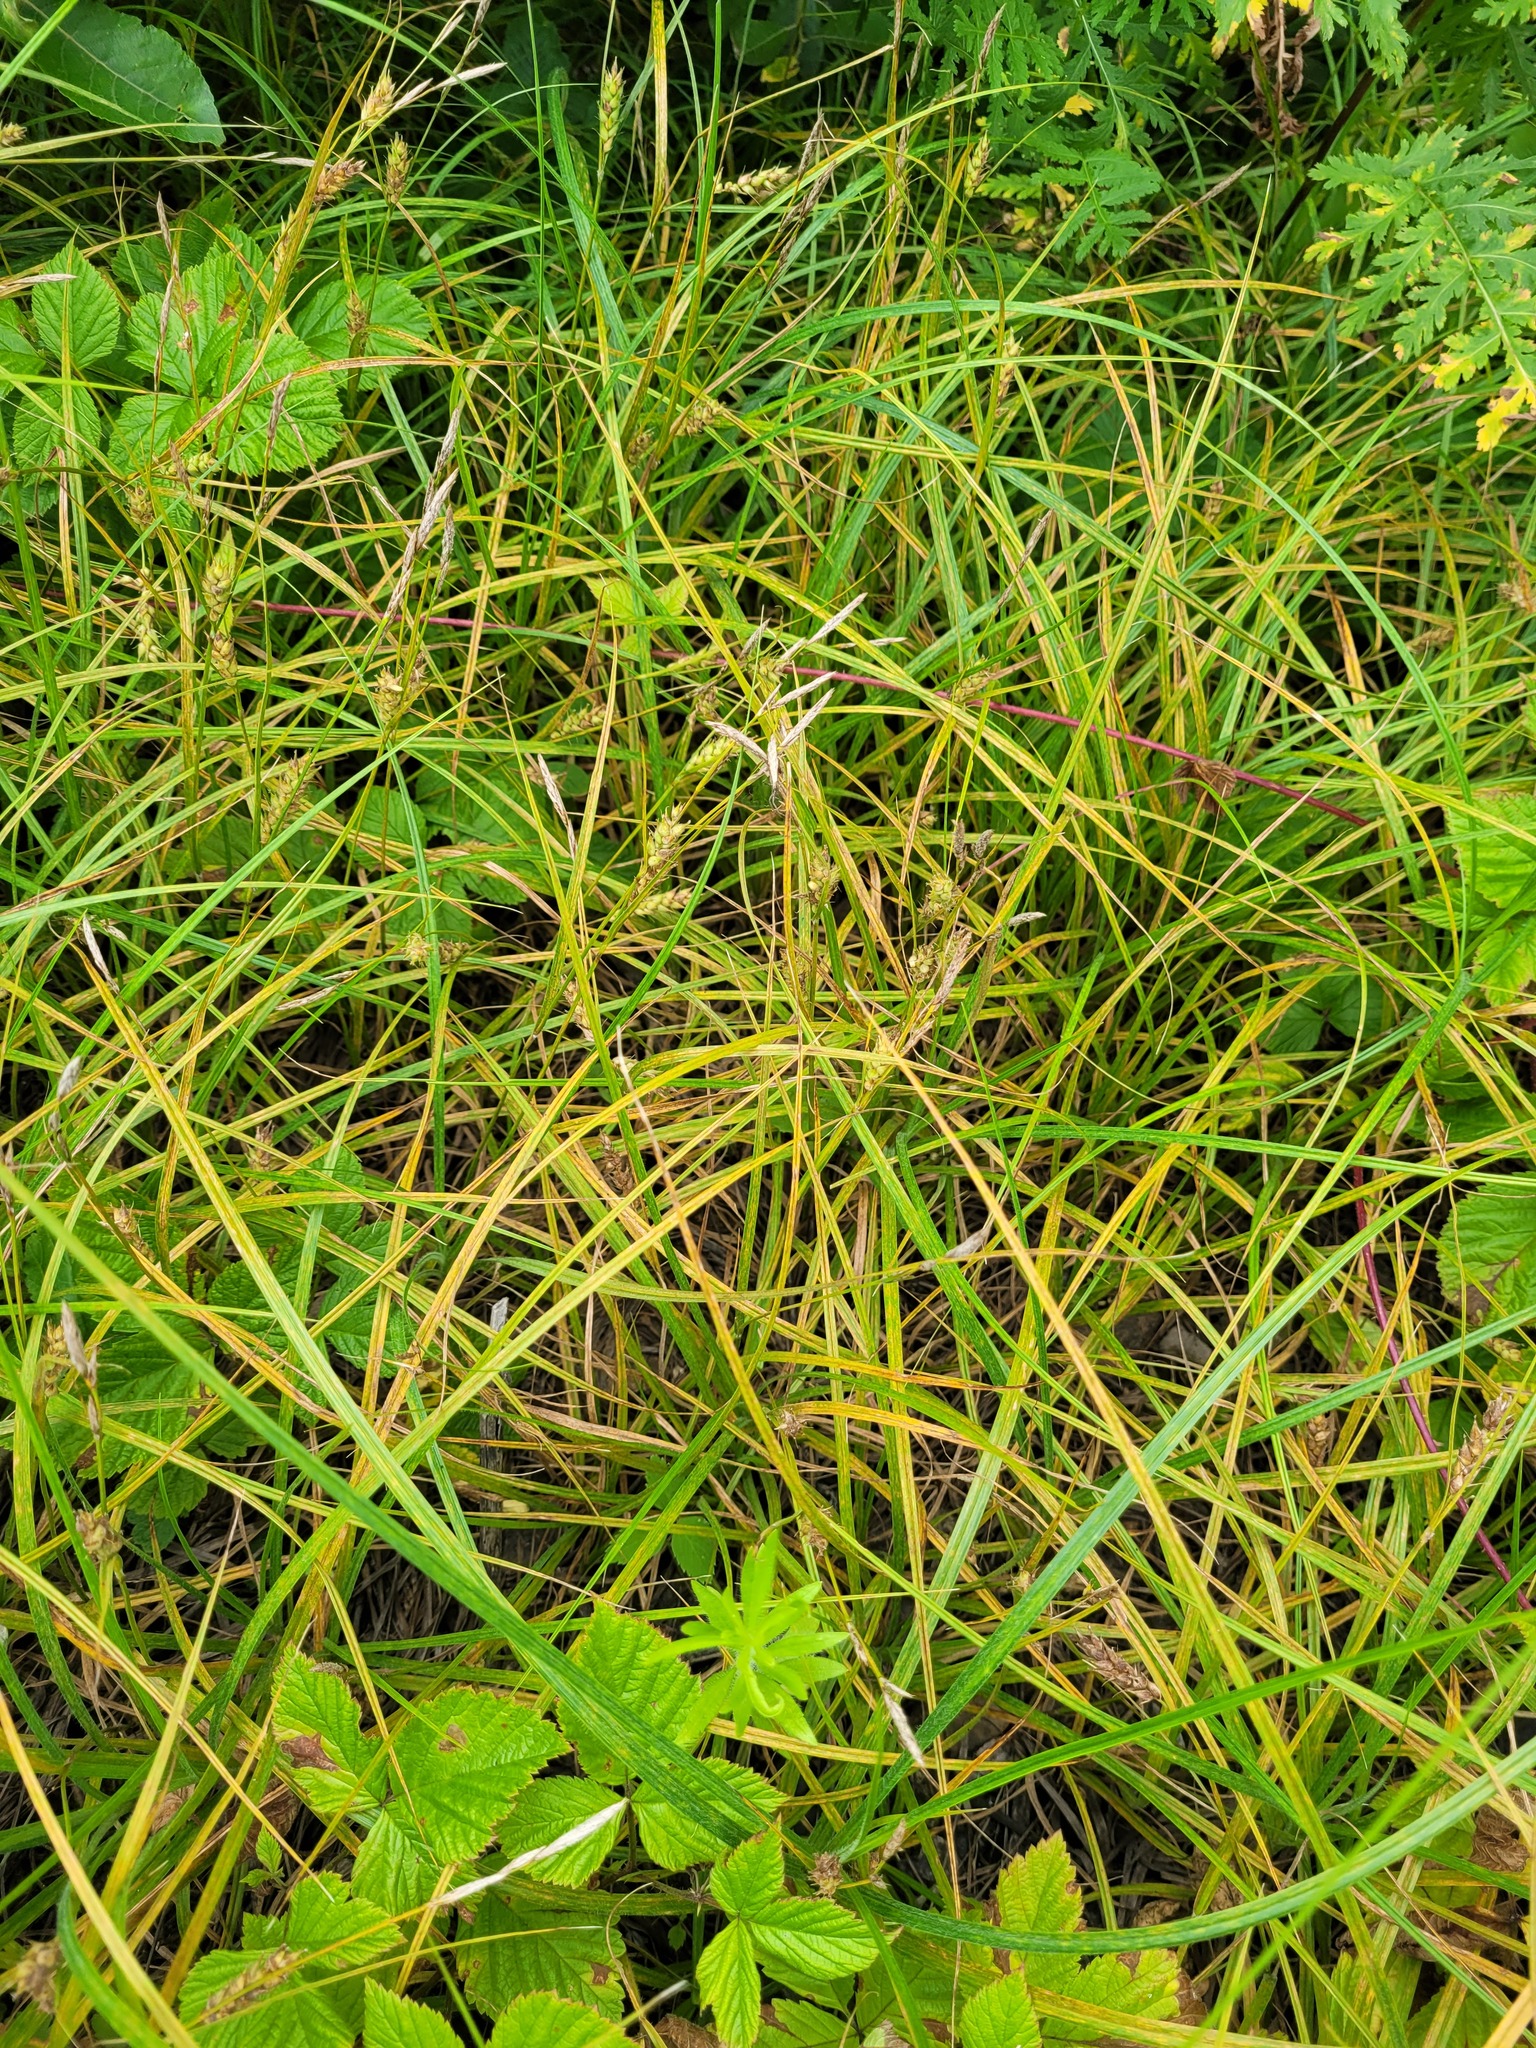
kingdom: Plantae
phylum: Tracheophyta
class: Liliopsida
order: Poales
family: Cyperaceae
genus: Carex
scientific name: Carex hirta
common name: Hairy sedge
